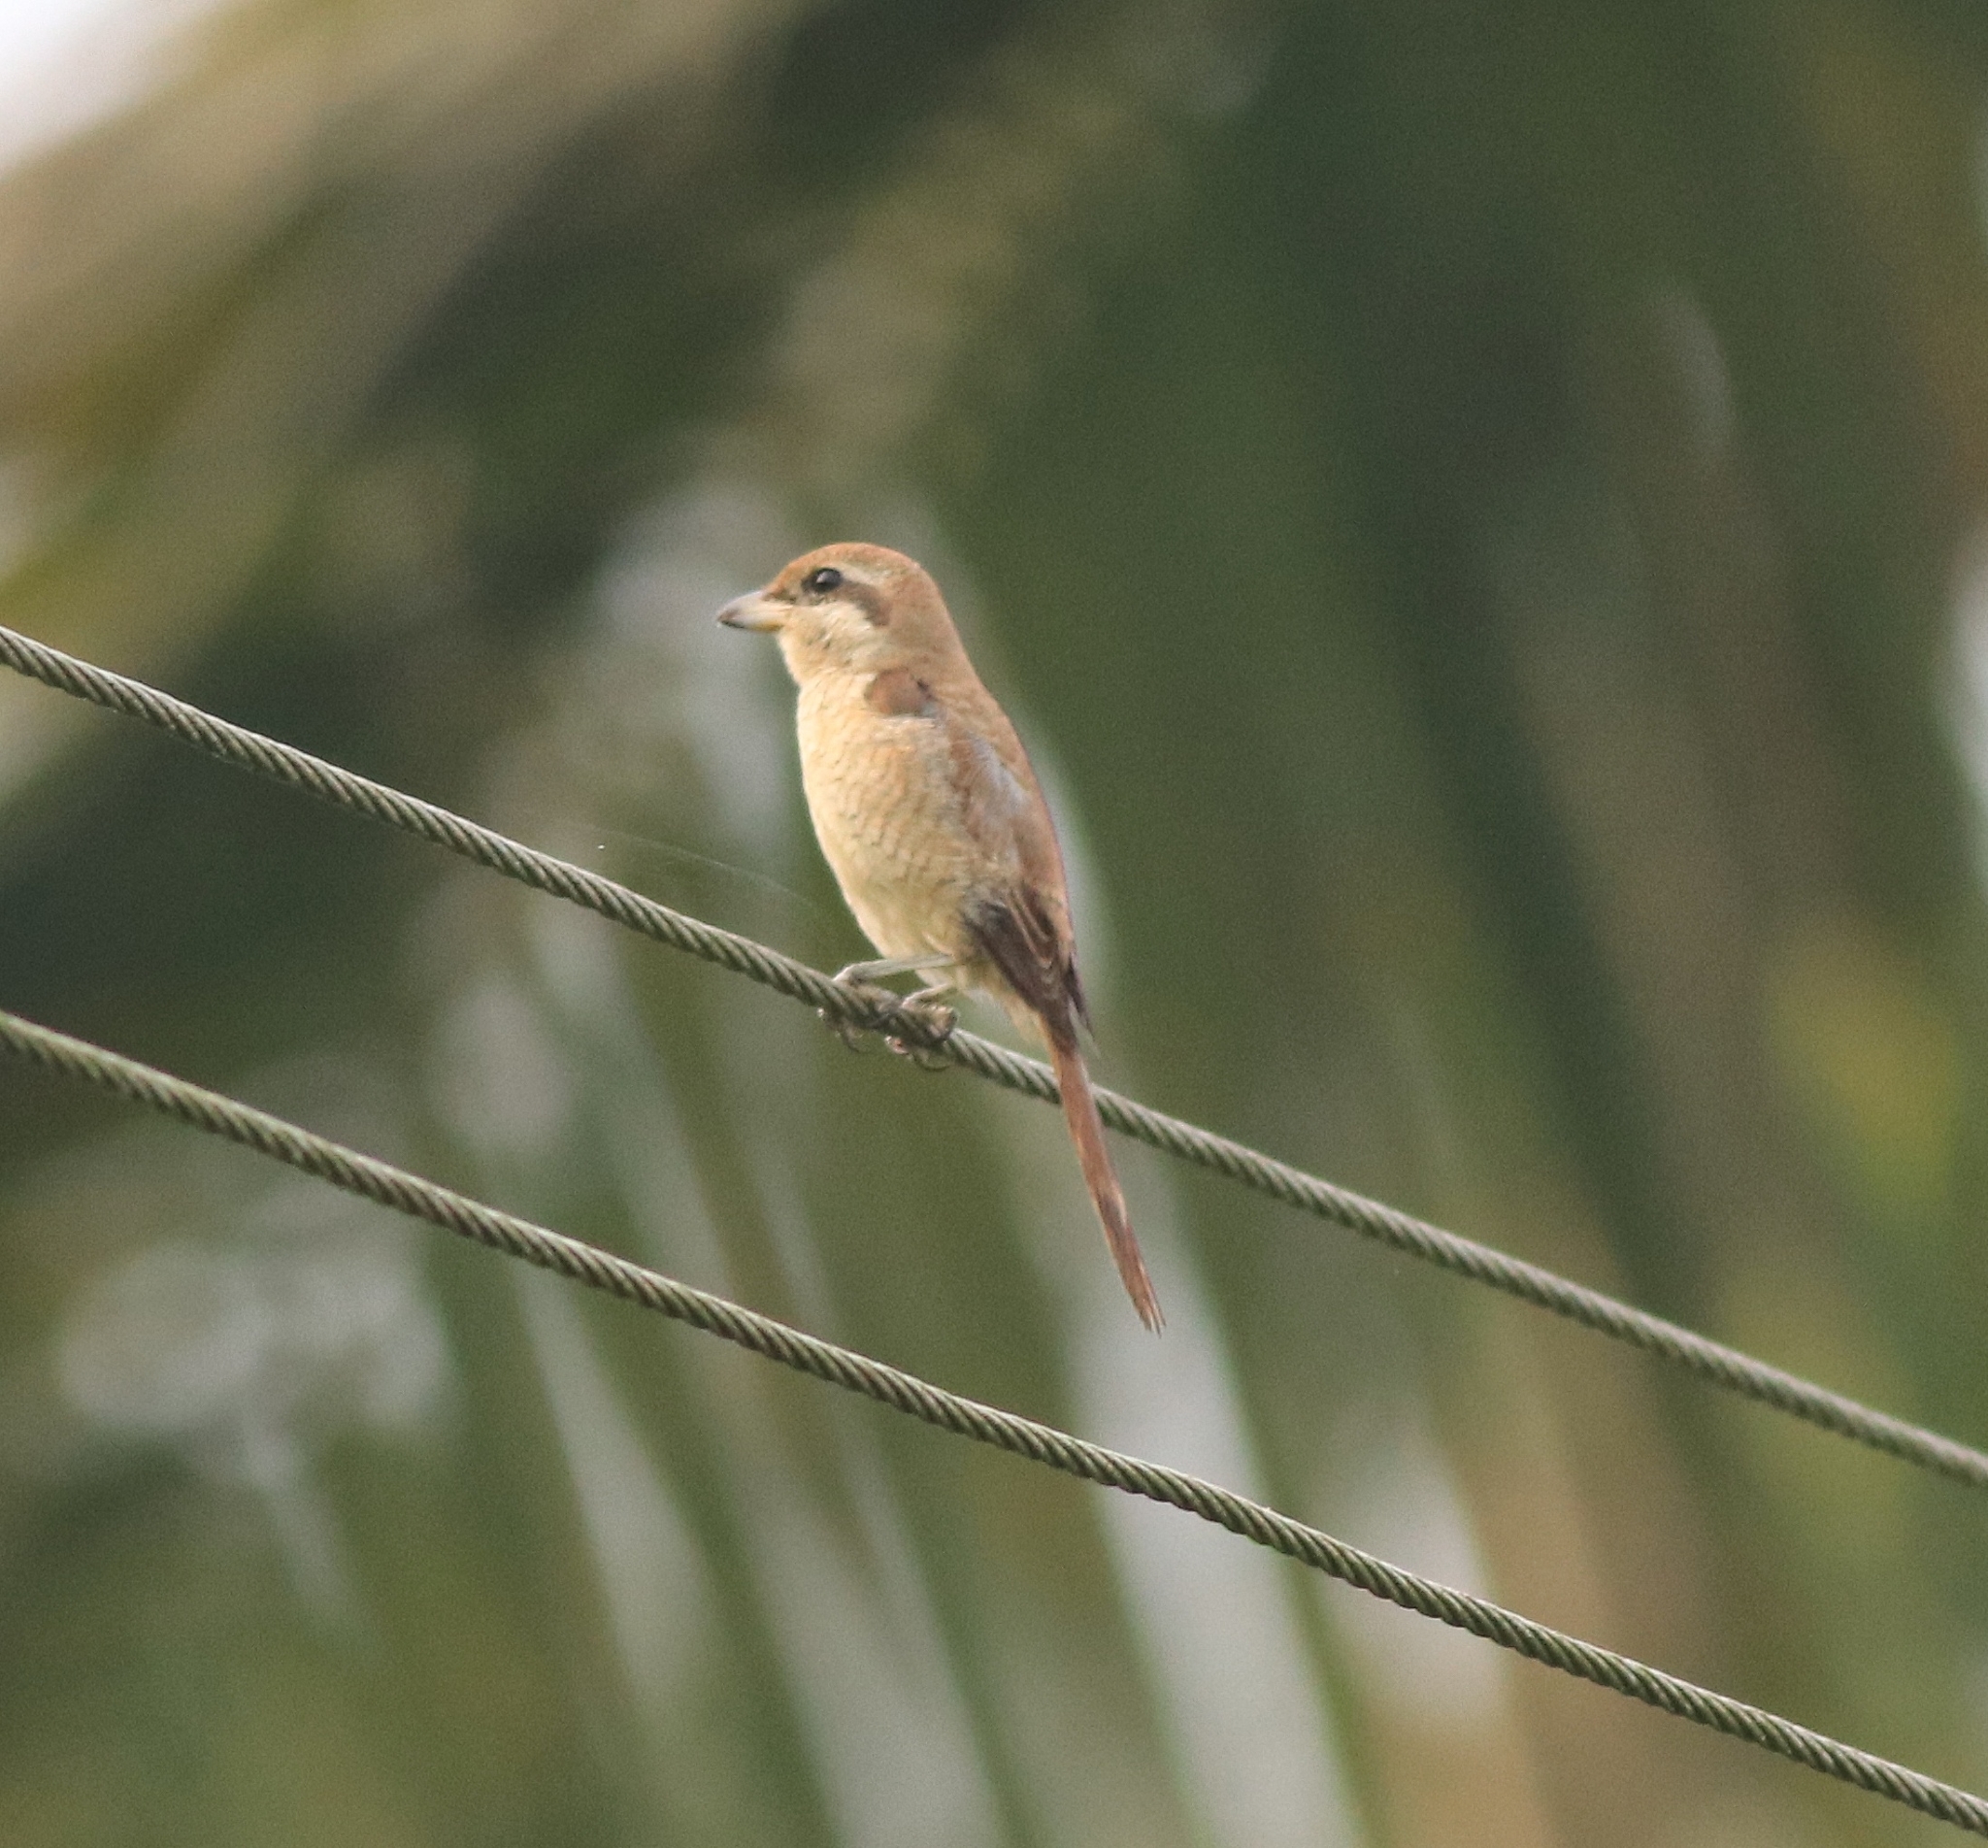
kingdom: Animalia
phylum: Chordata
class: Aves
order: Passeriformes
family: Laniidae
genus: Lanius
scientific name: Lanius cristatus
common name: Brown shrike
